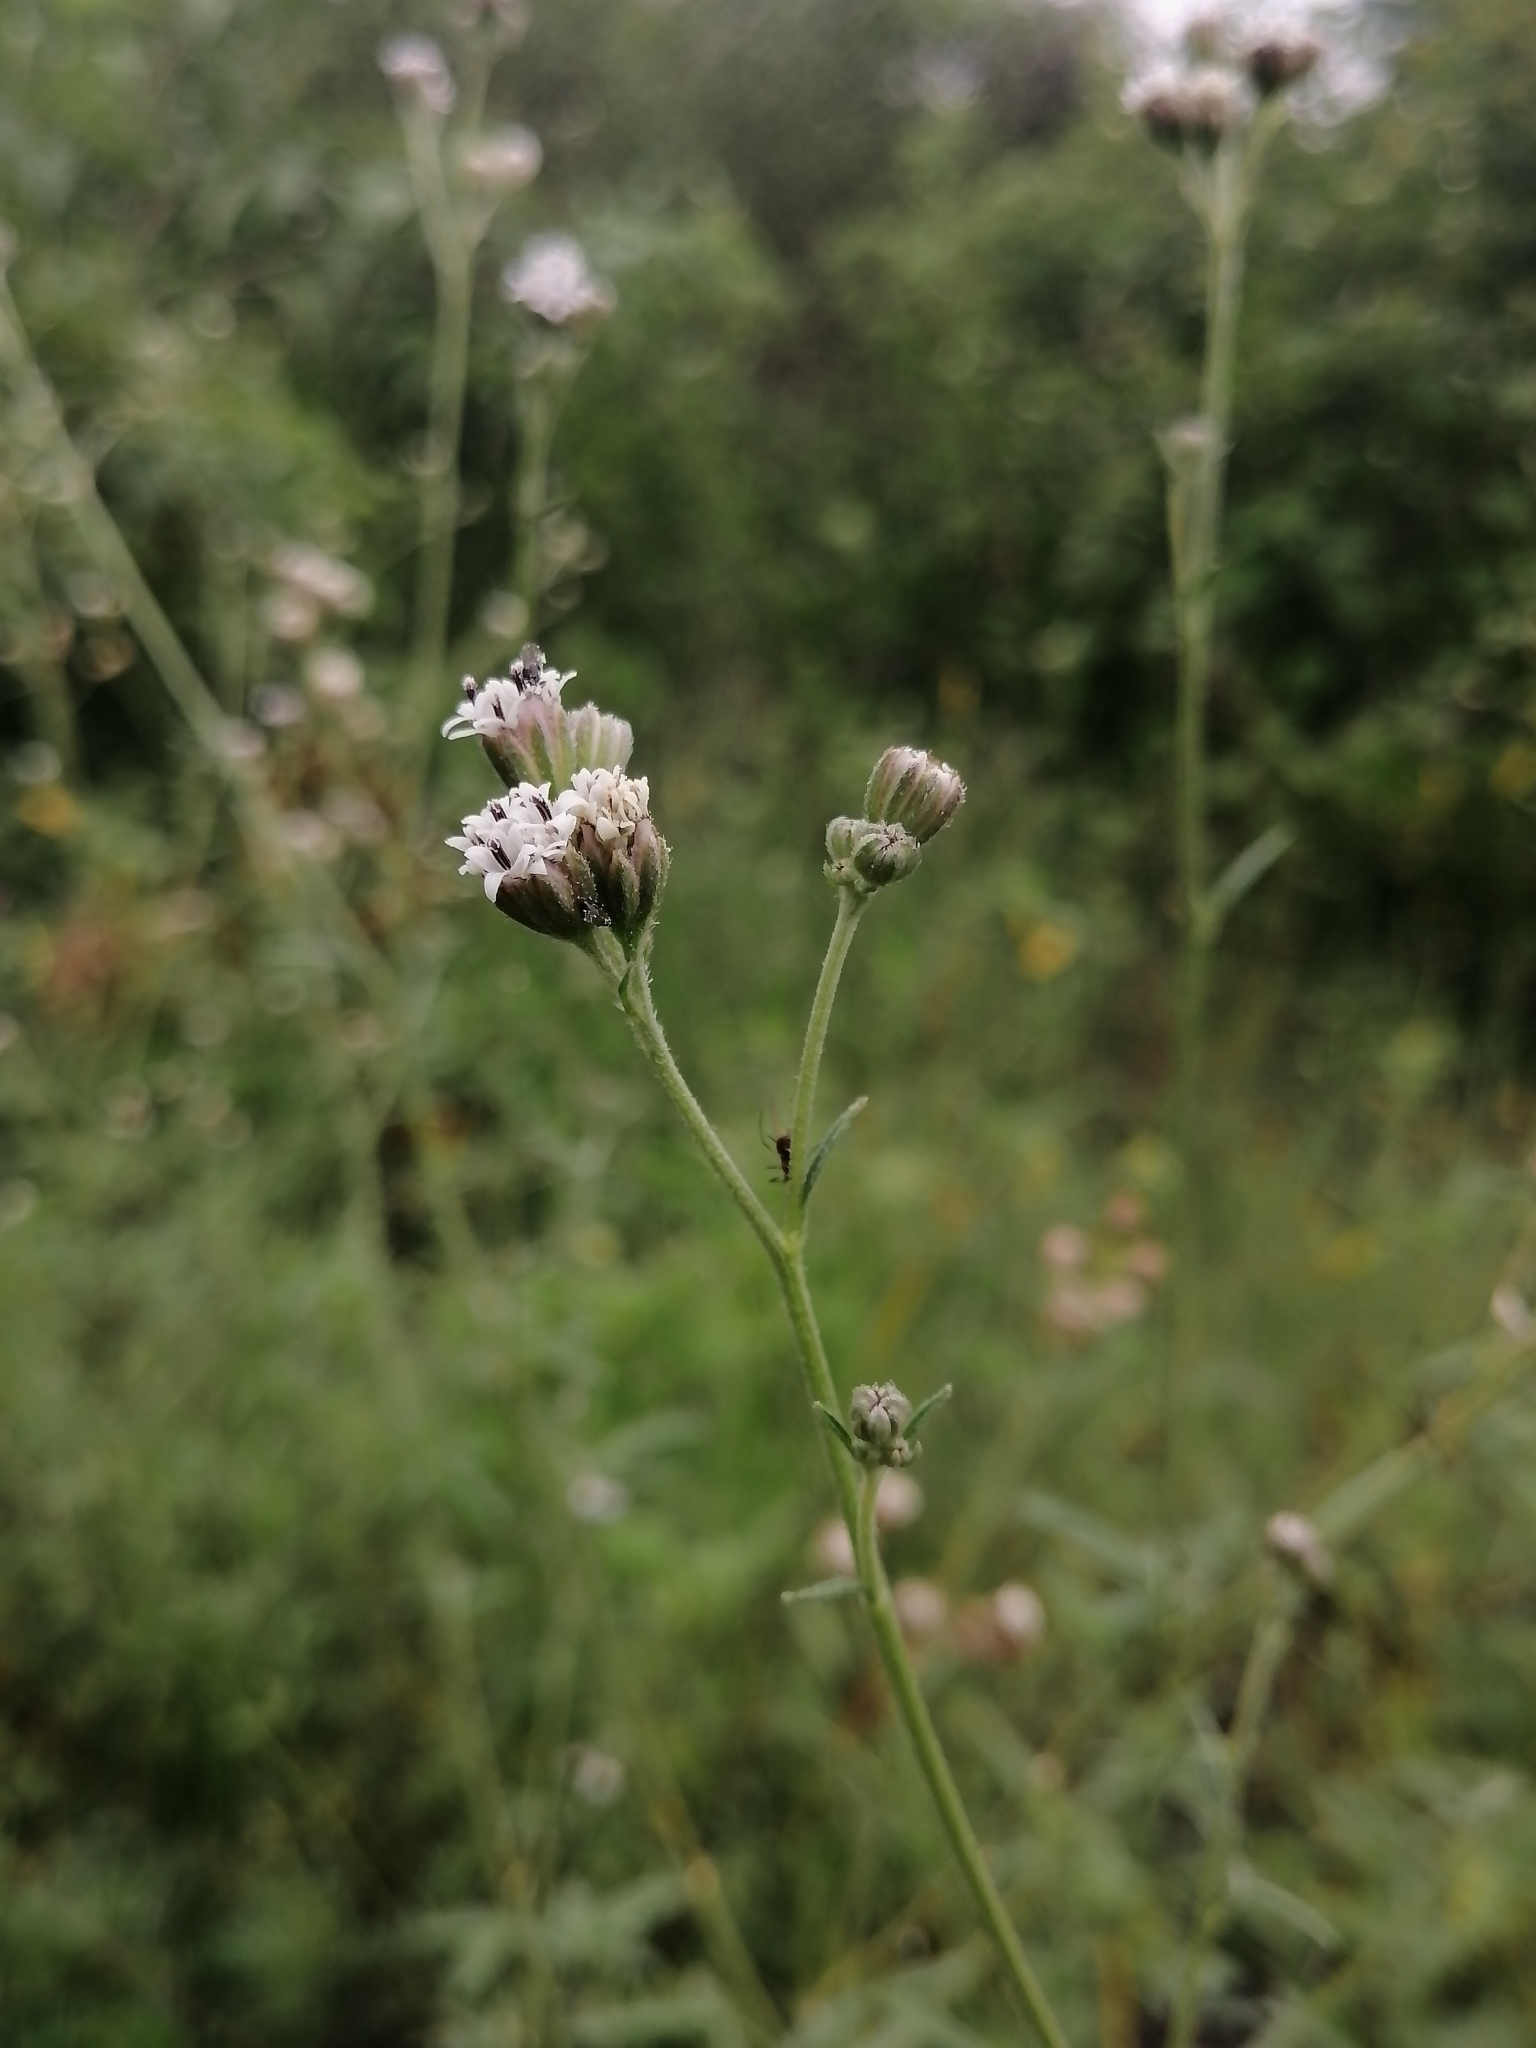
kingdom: Plantae
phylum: Tracheophyta
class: Magnoliopsida
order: Asterales
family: Asteraceae
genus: Florestina
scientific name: Florestina pedata
